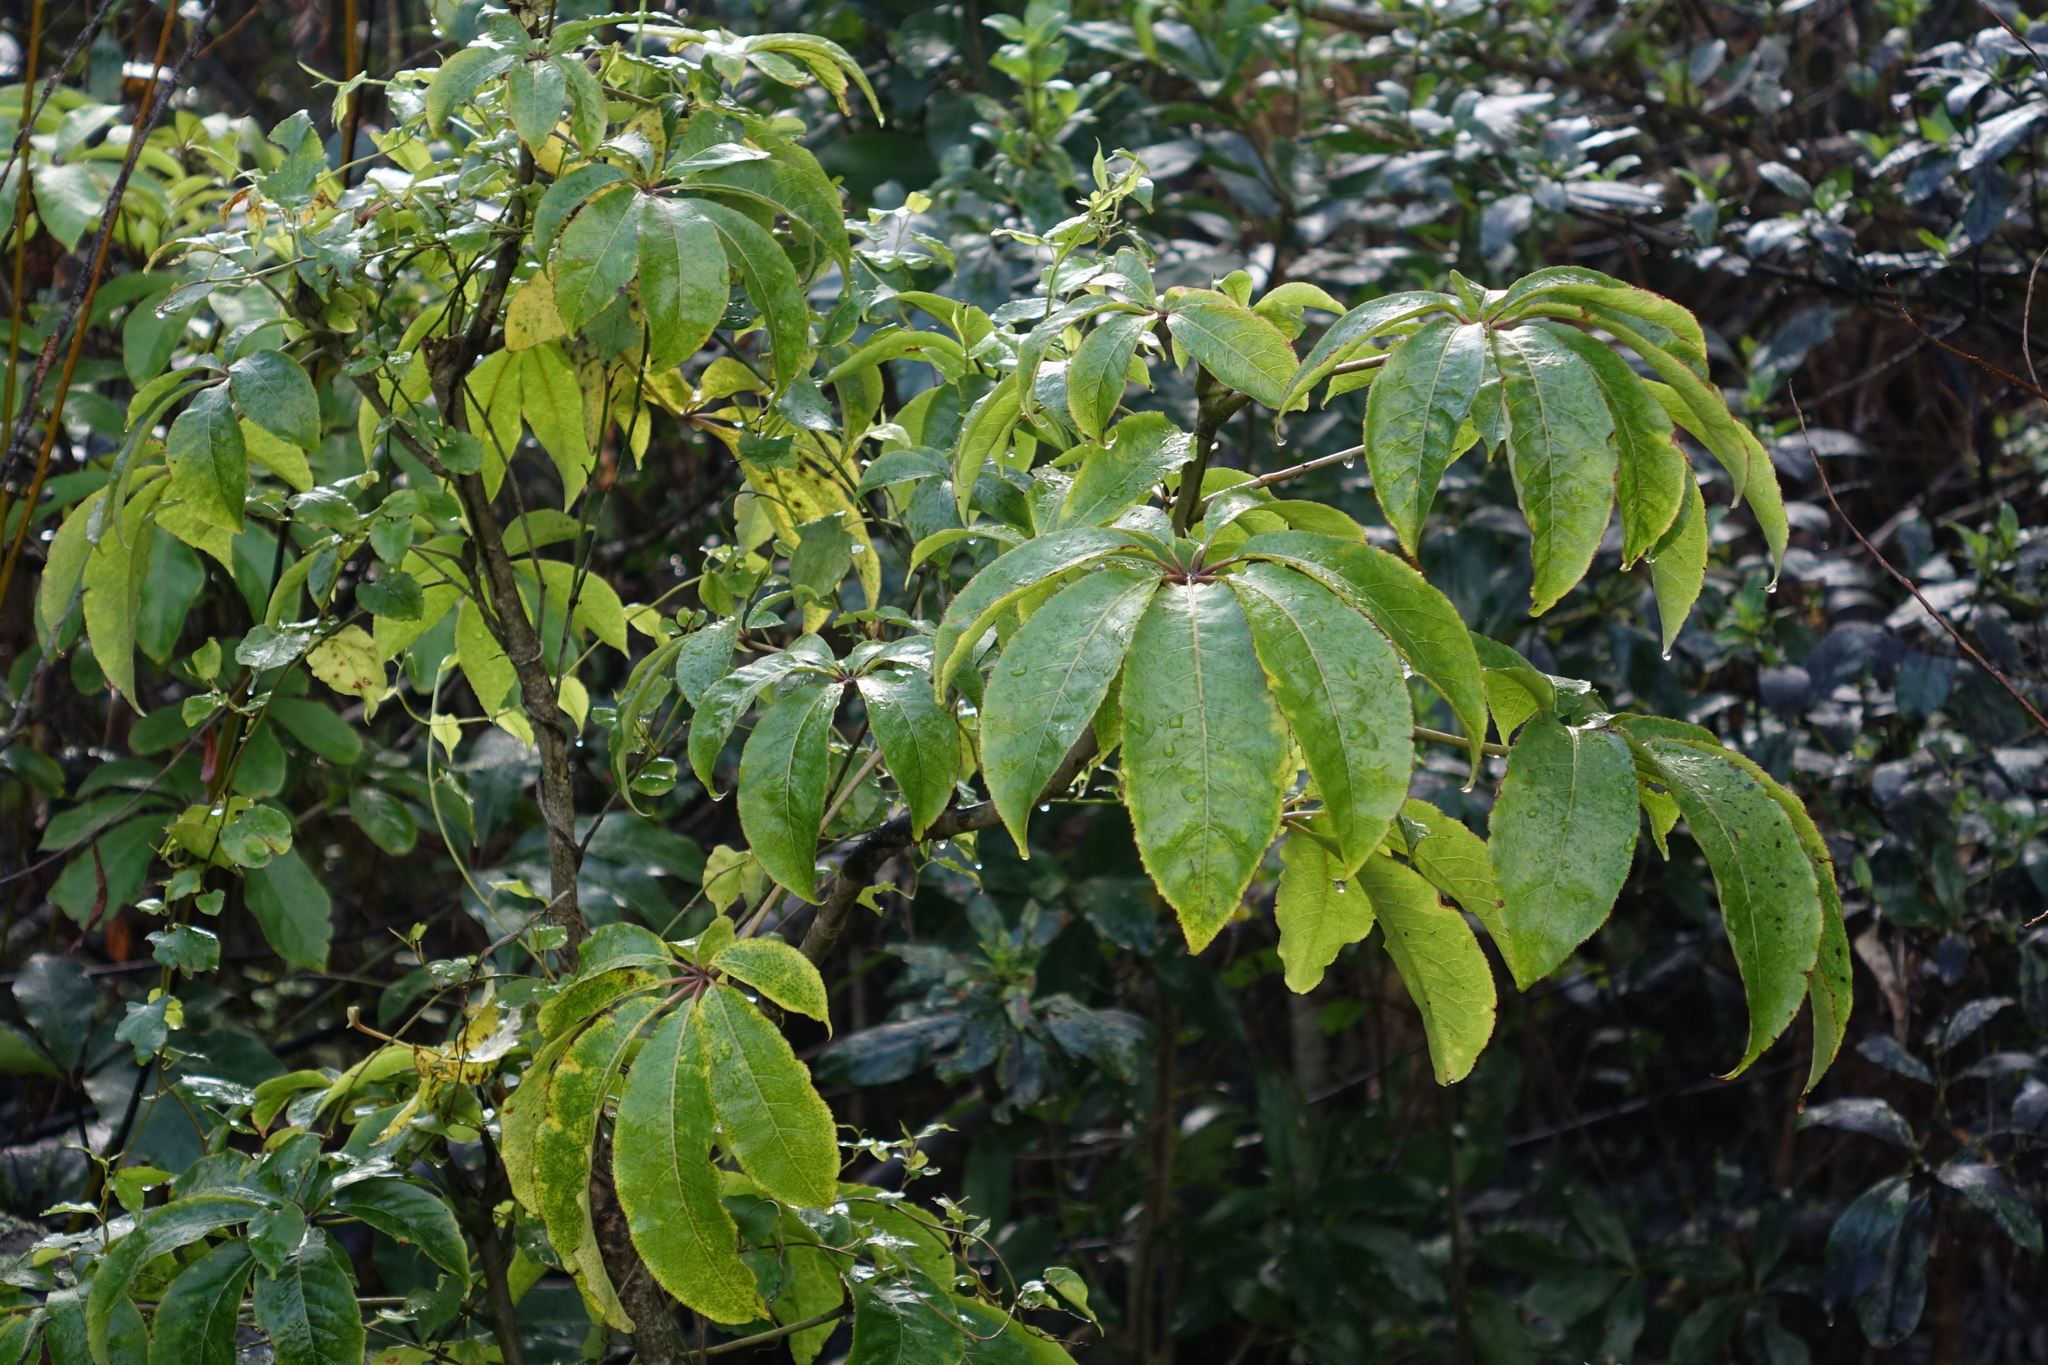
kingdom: Plantae
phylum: Tracheophyta
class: Magnoliopsida
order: Apiales
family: Araliaceae
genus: Schefflera
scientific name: Schefflera digitata
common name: Pate
